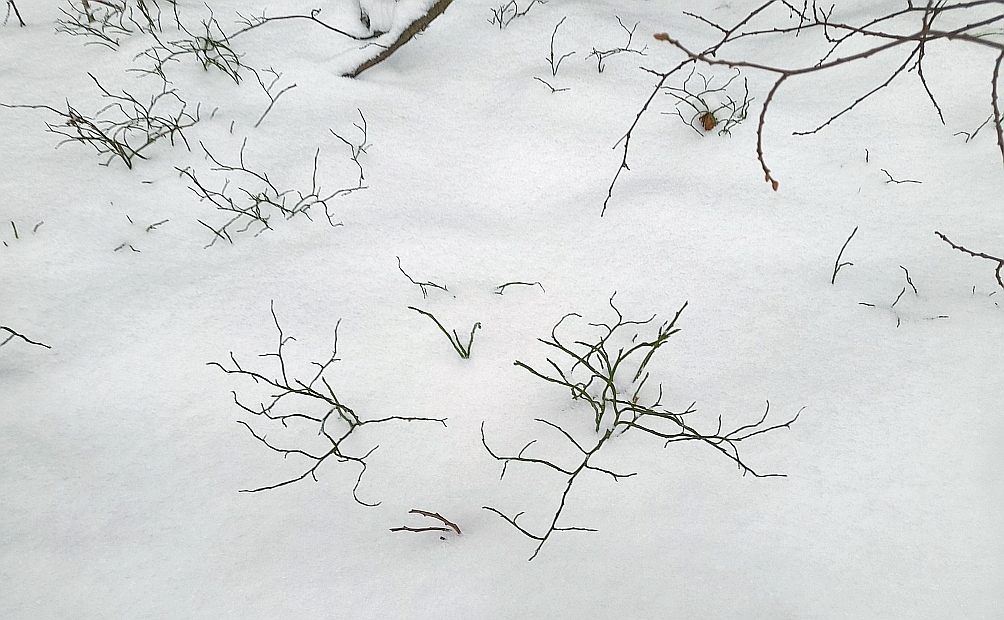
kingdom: Plantae
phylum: Tracheophyta
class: Magnoliopsida
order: Ericales
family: Ericaceae
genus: Vaccinium
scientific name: Vaccinium myrtillus
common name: Bilberry
